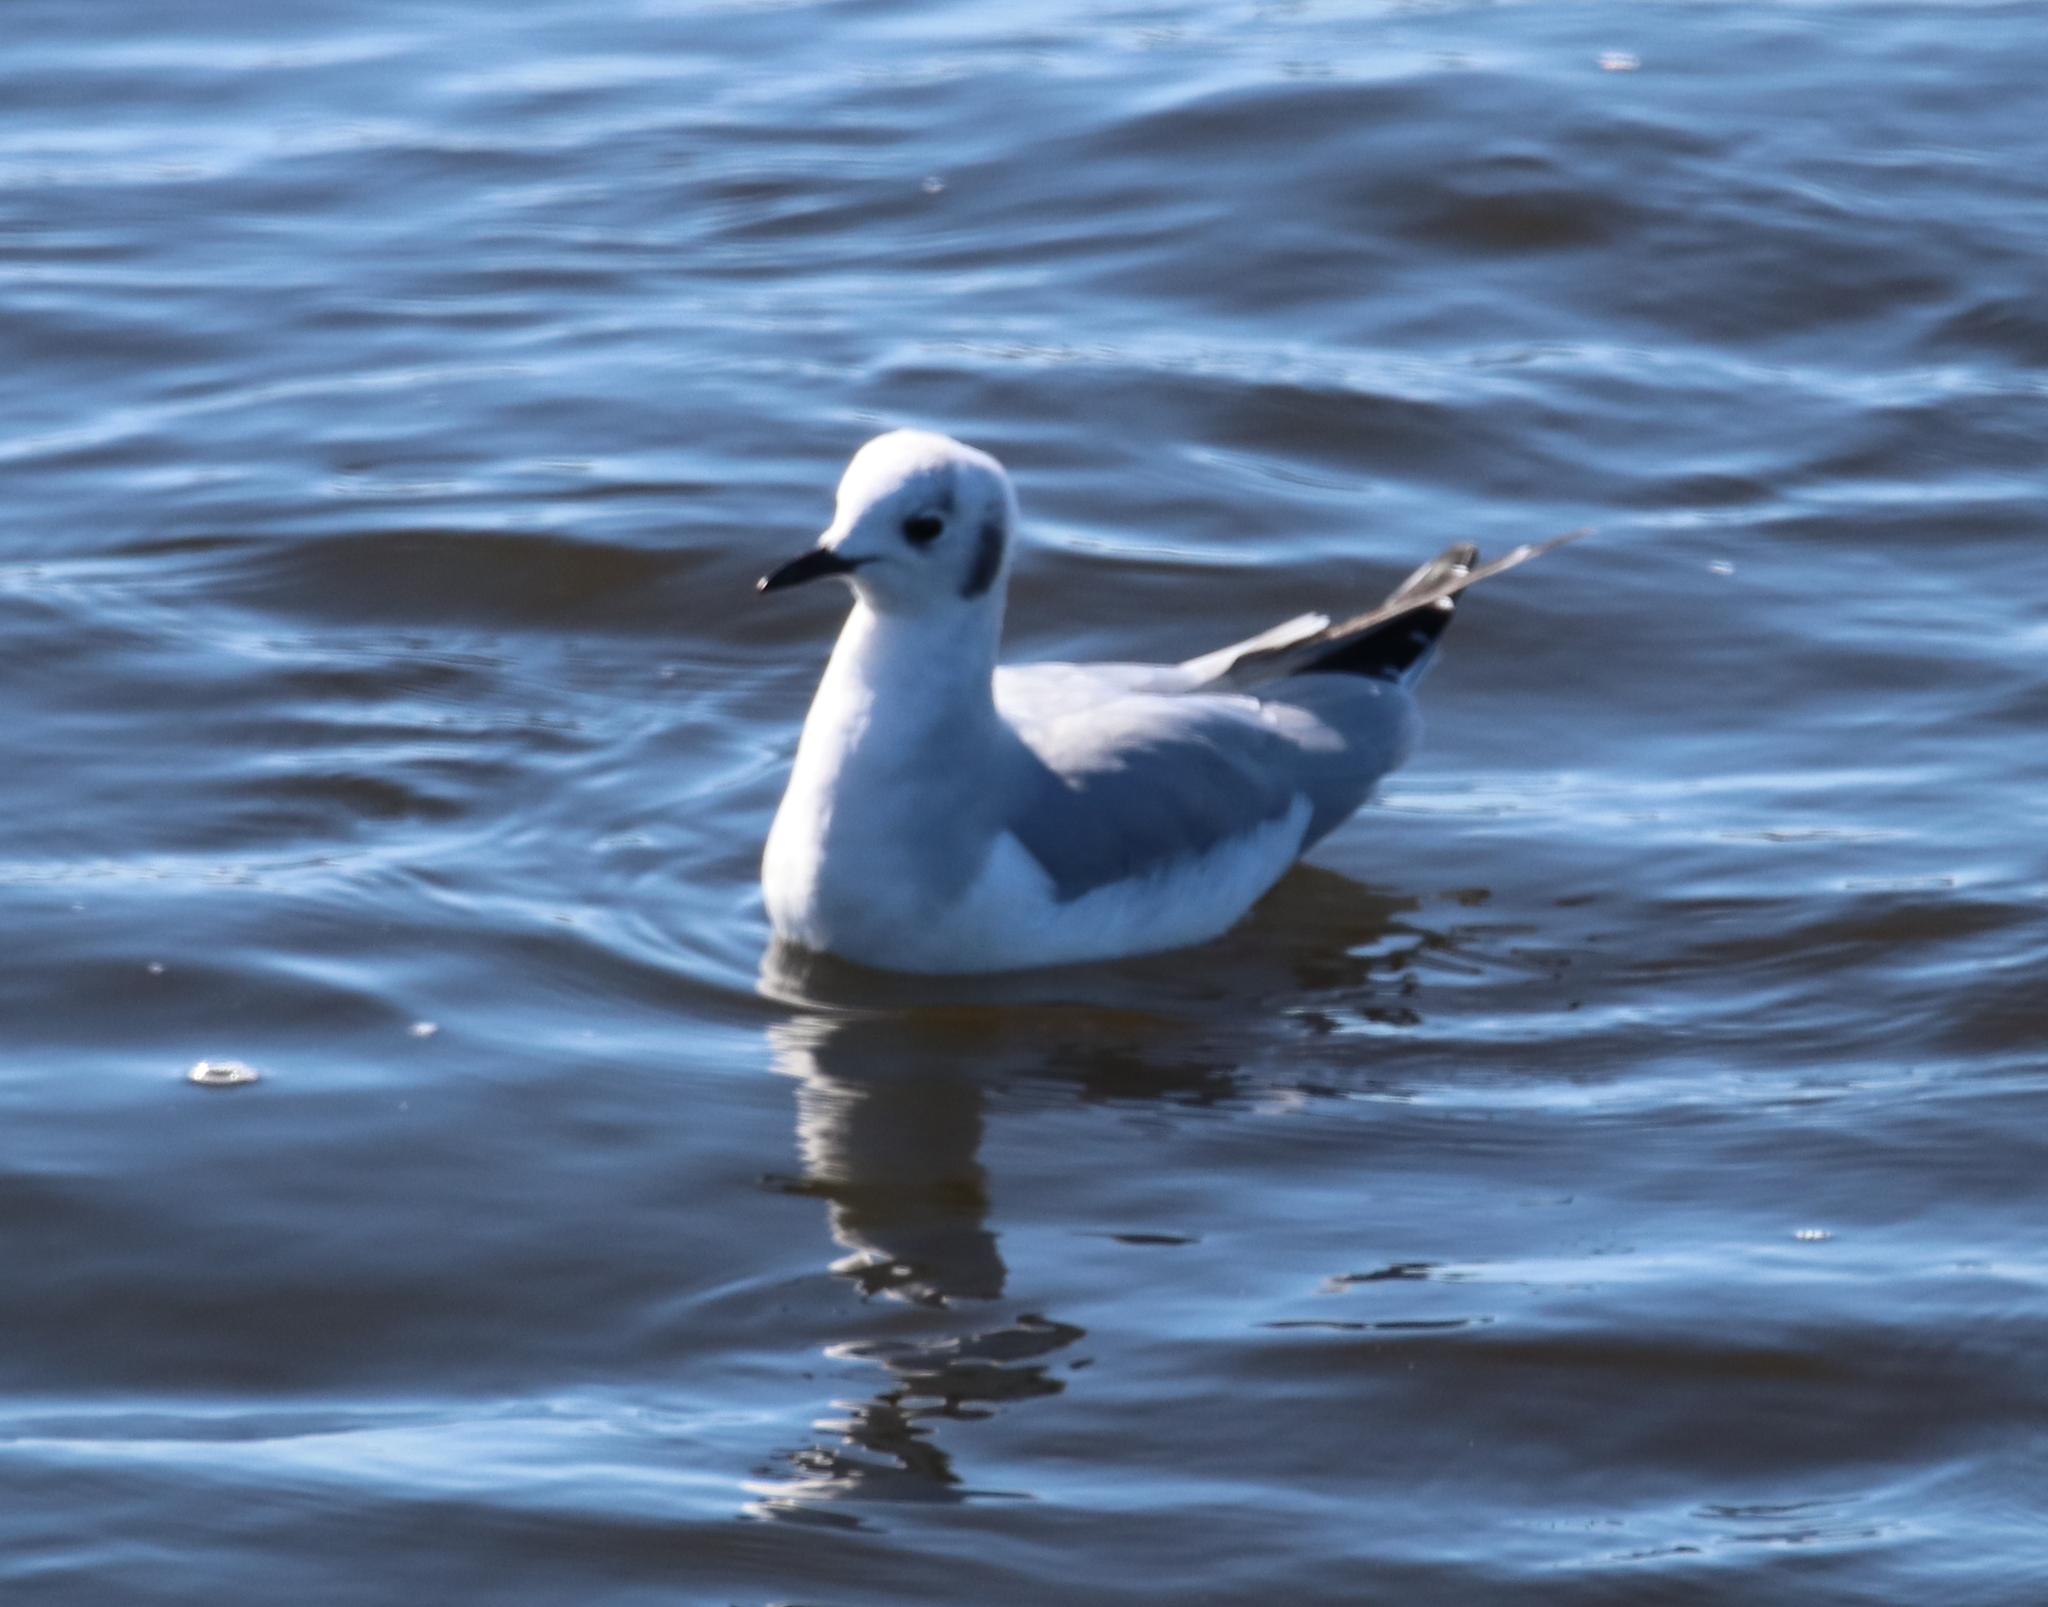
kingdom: Animalia
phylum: Chordata
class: Aves
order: Charadriiformes
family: Laridae
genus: Chroicocephalus
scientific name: Chroicocephalus philadelphia
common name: Bonaparte's gull
